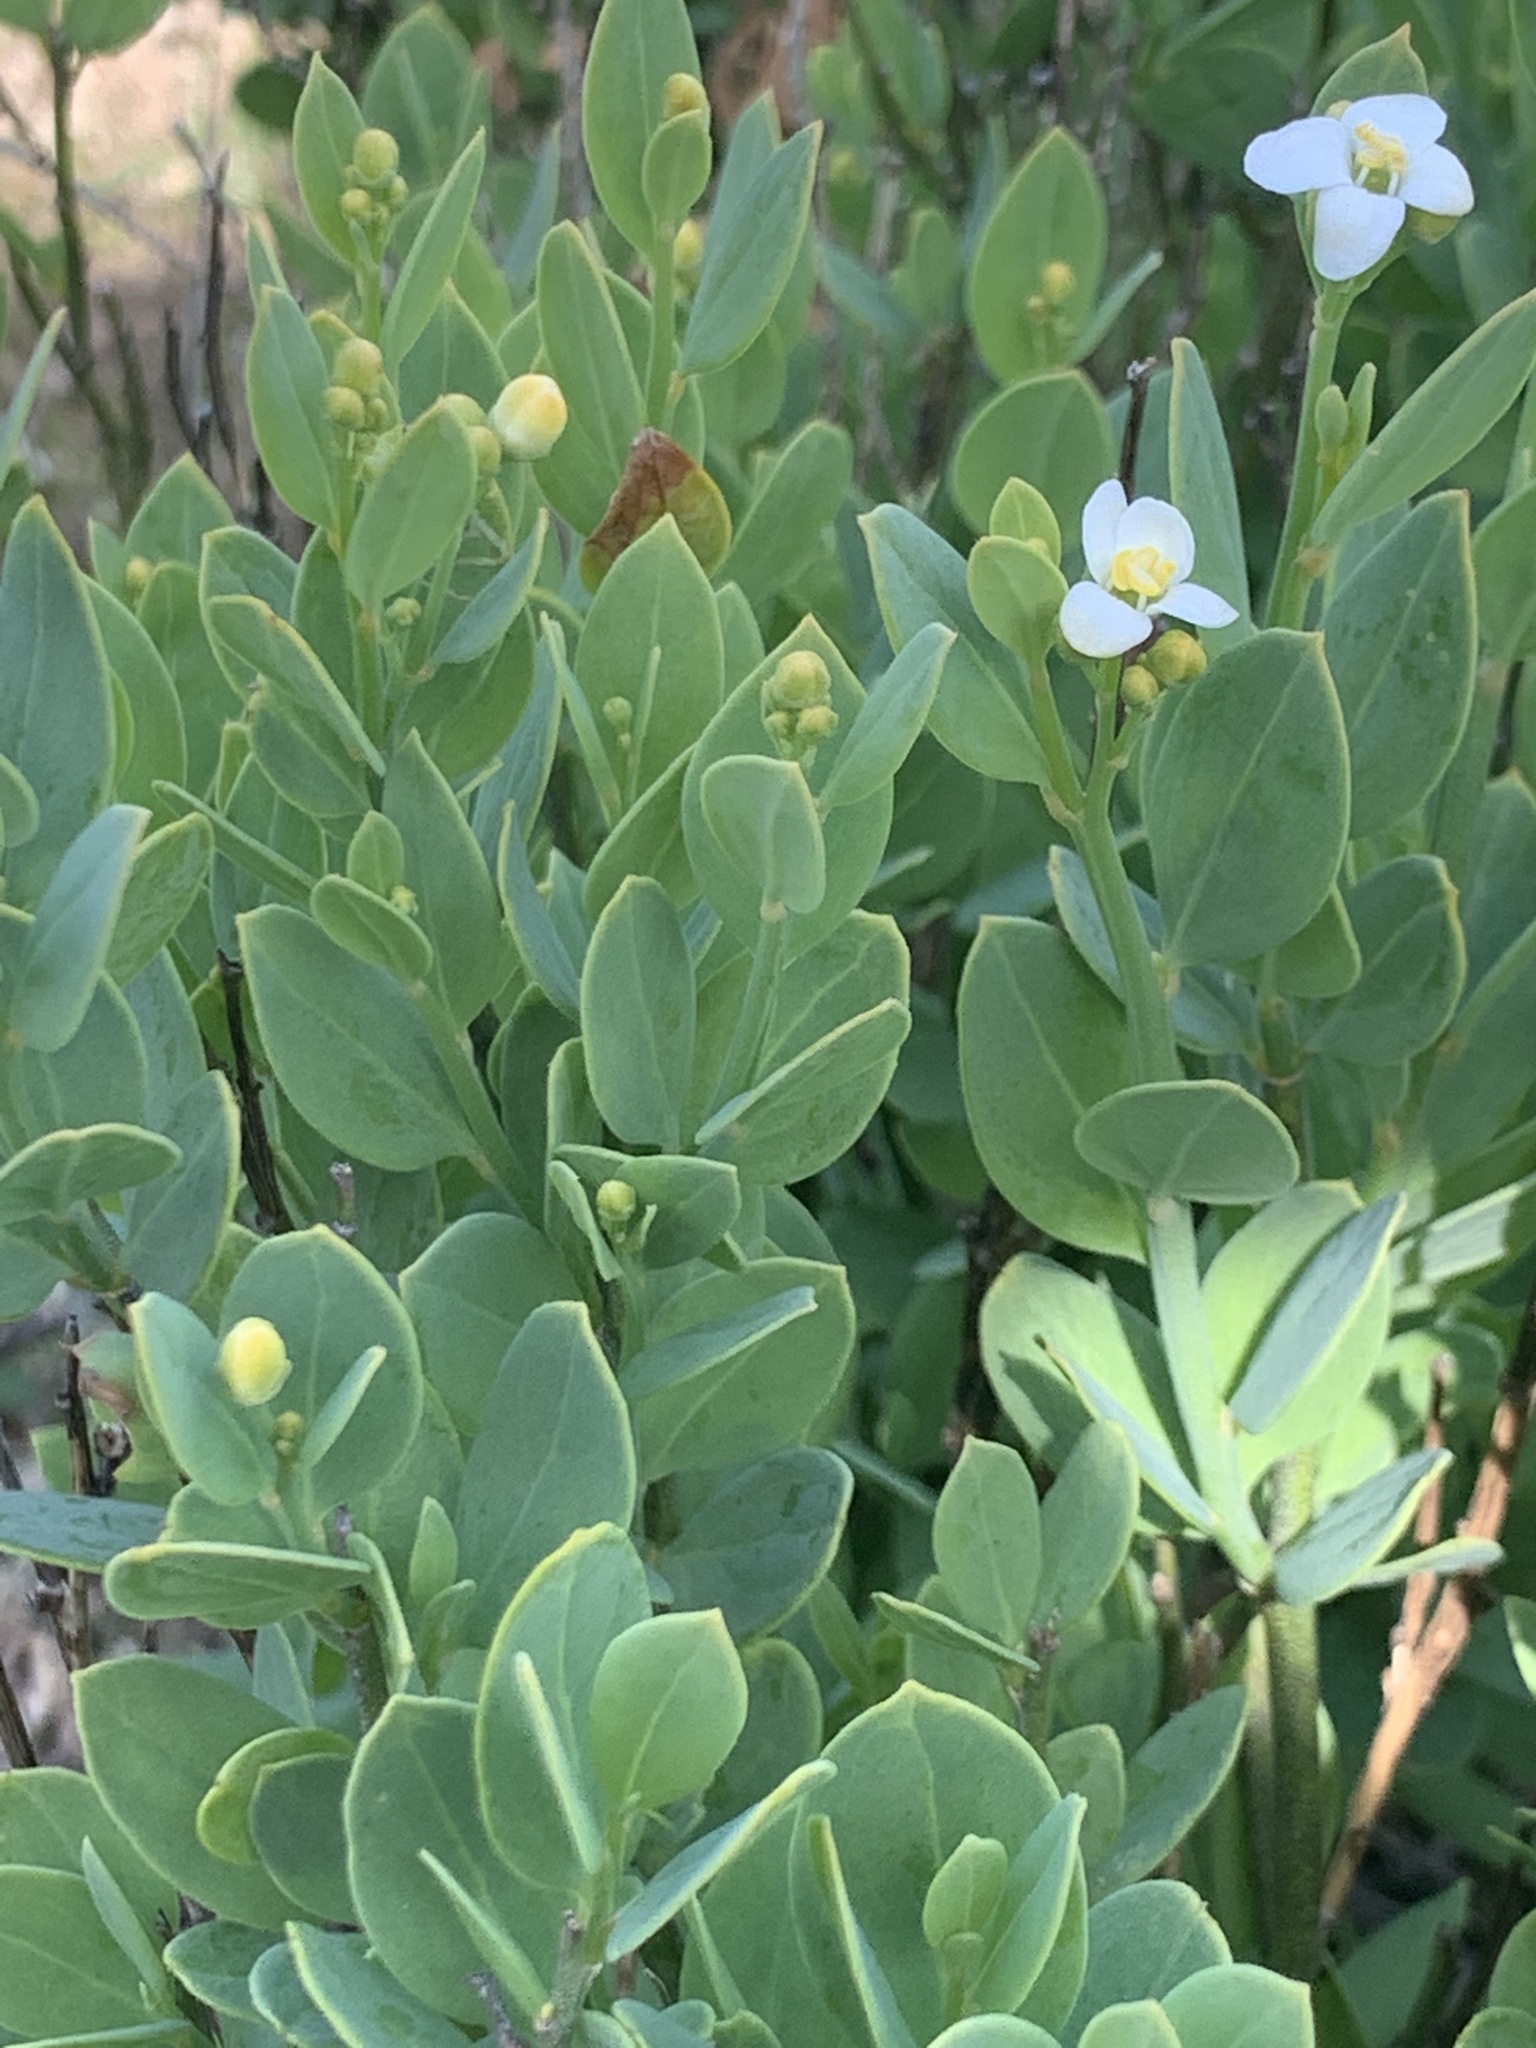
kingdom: Plantae
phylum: Tracheophyta
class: Magnoliopsida
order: Solanales
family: Montiniaceae
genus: Montinia
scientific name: Montinia caryophyllacea
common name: Wild clove-bush
